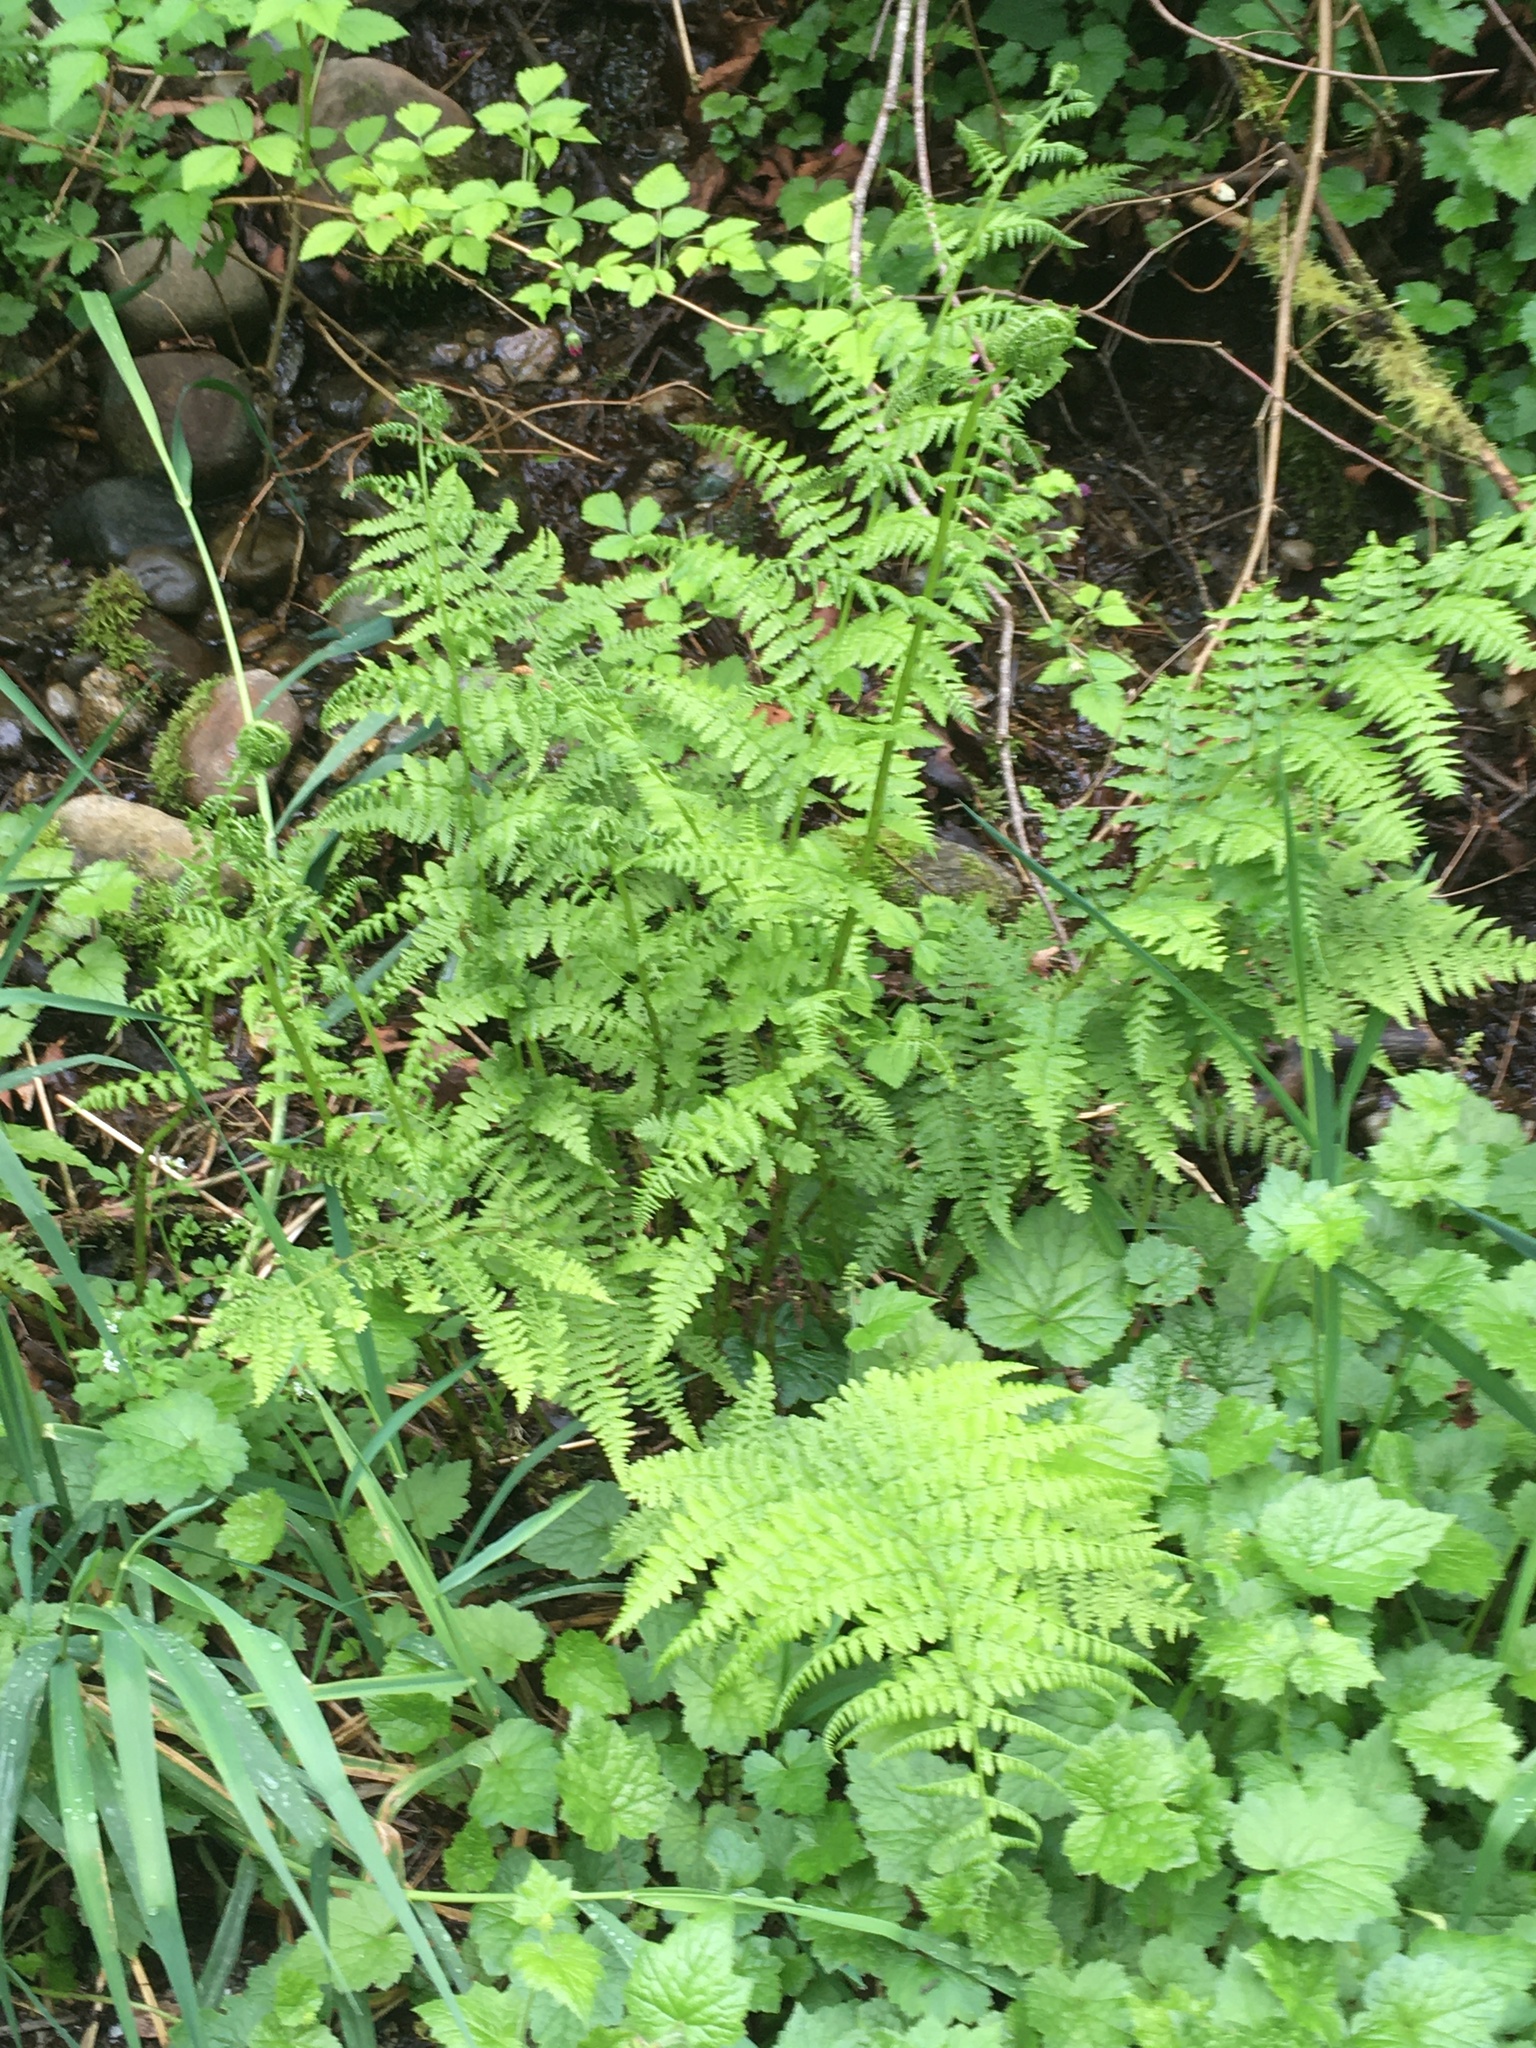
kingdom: Plantae
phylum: Tracheophyta
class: Polypodiopsida
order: Polypodiales
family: Athyriaceae
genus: Athyrium
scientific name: Athyrium filix-femina
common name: Lady fern
